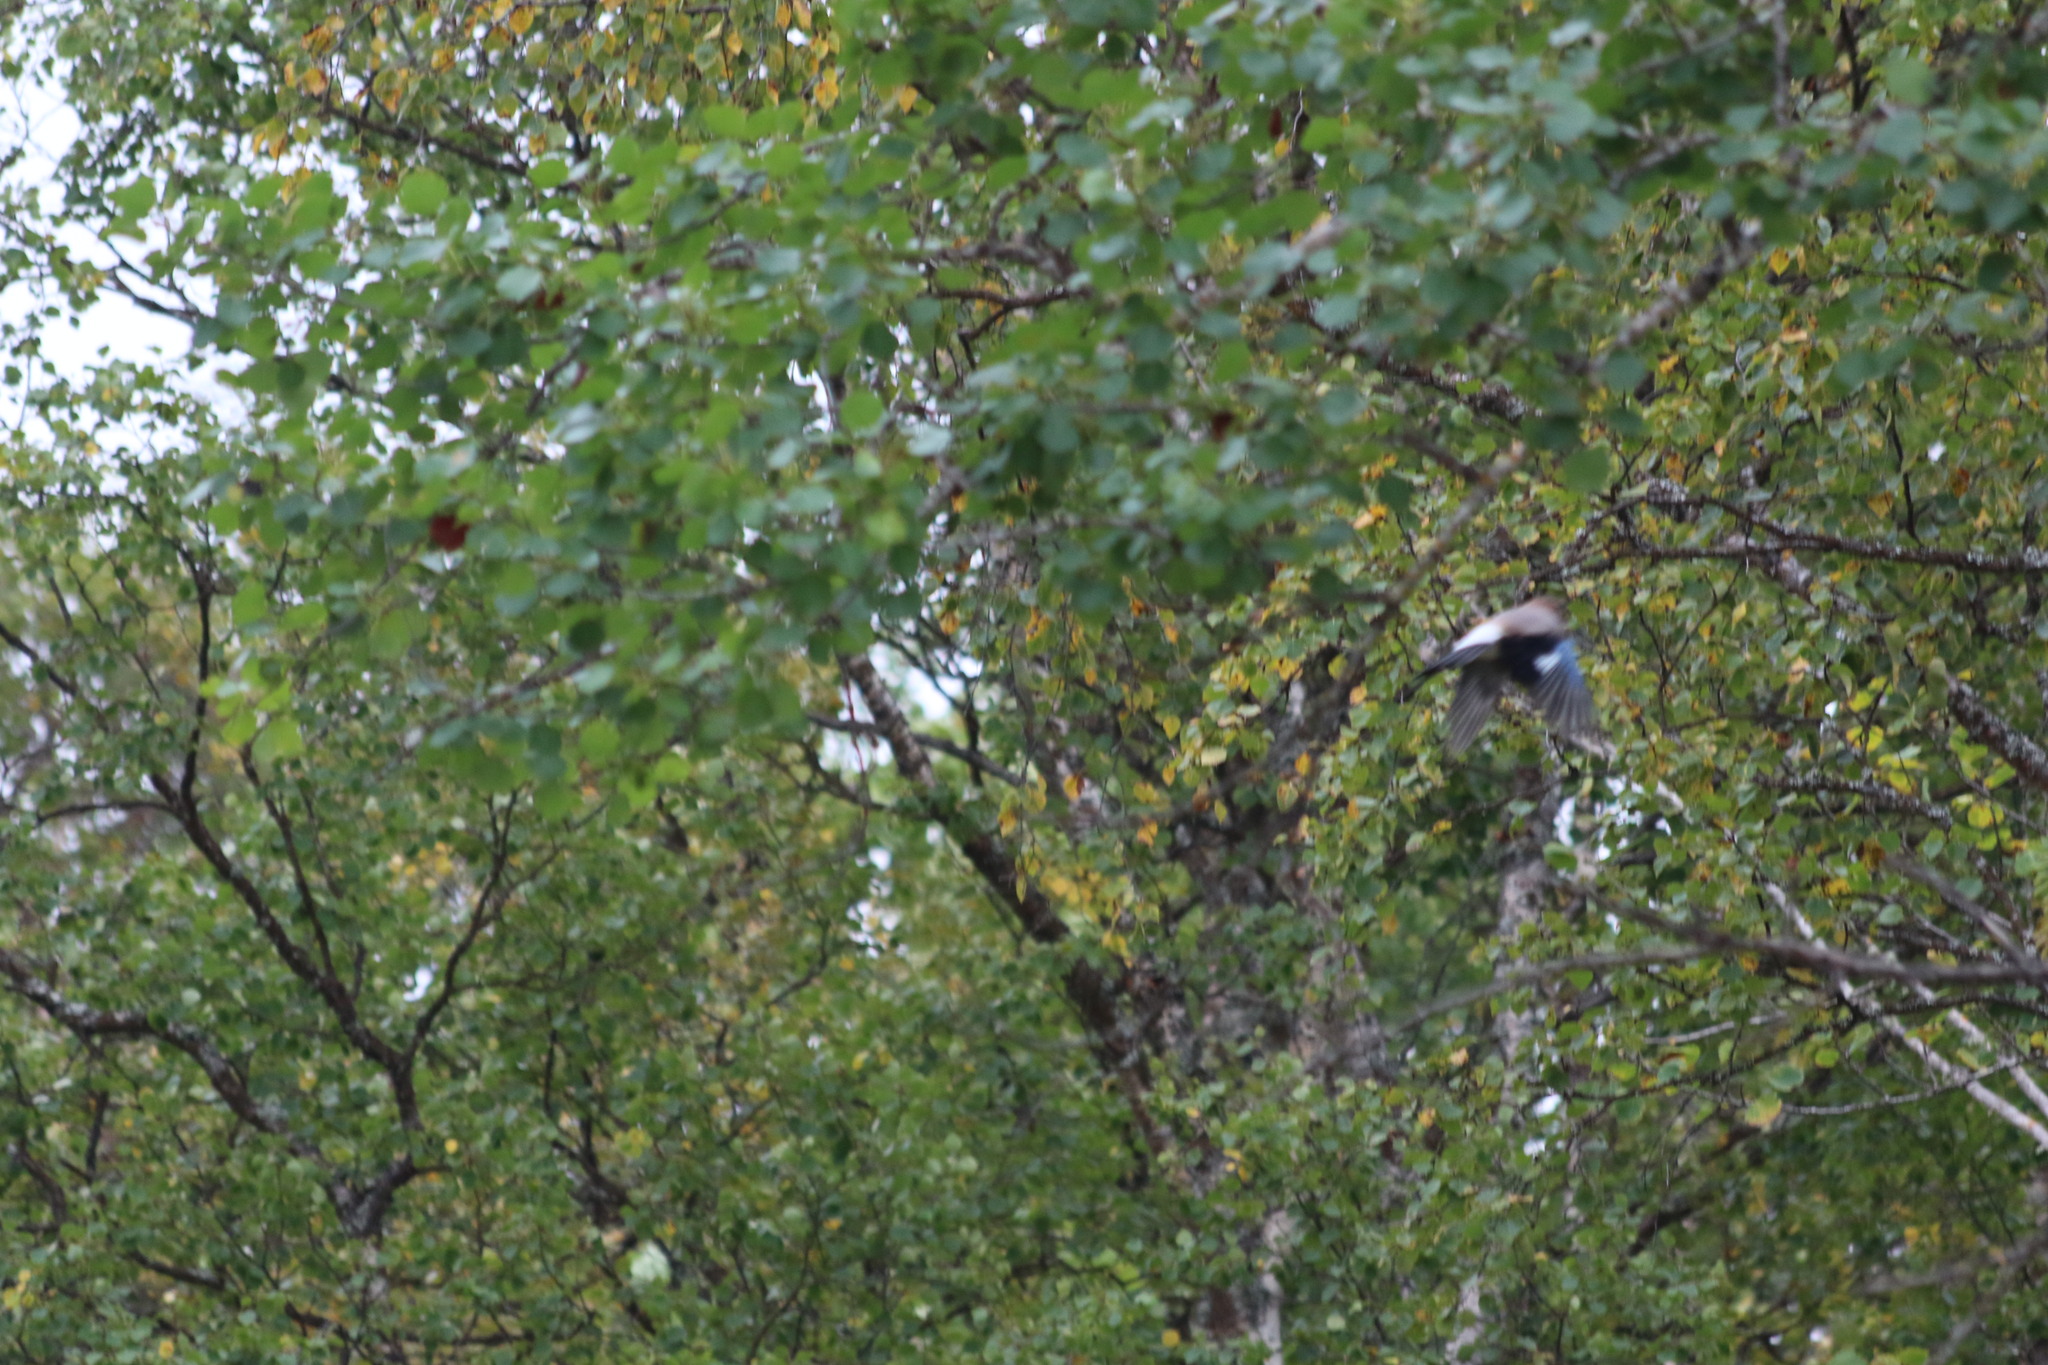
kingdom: Animalia
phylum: Chordata
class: Aves
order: Passeriformes
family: Corvidae
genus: Garrulus
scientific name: Garrulus glandarius
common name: Eurasian jay
